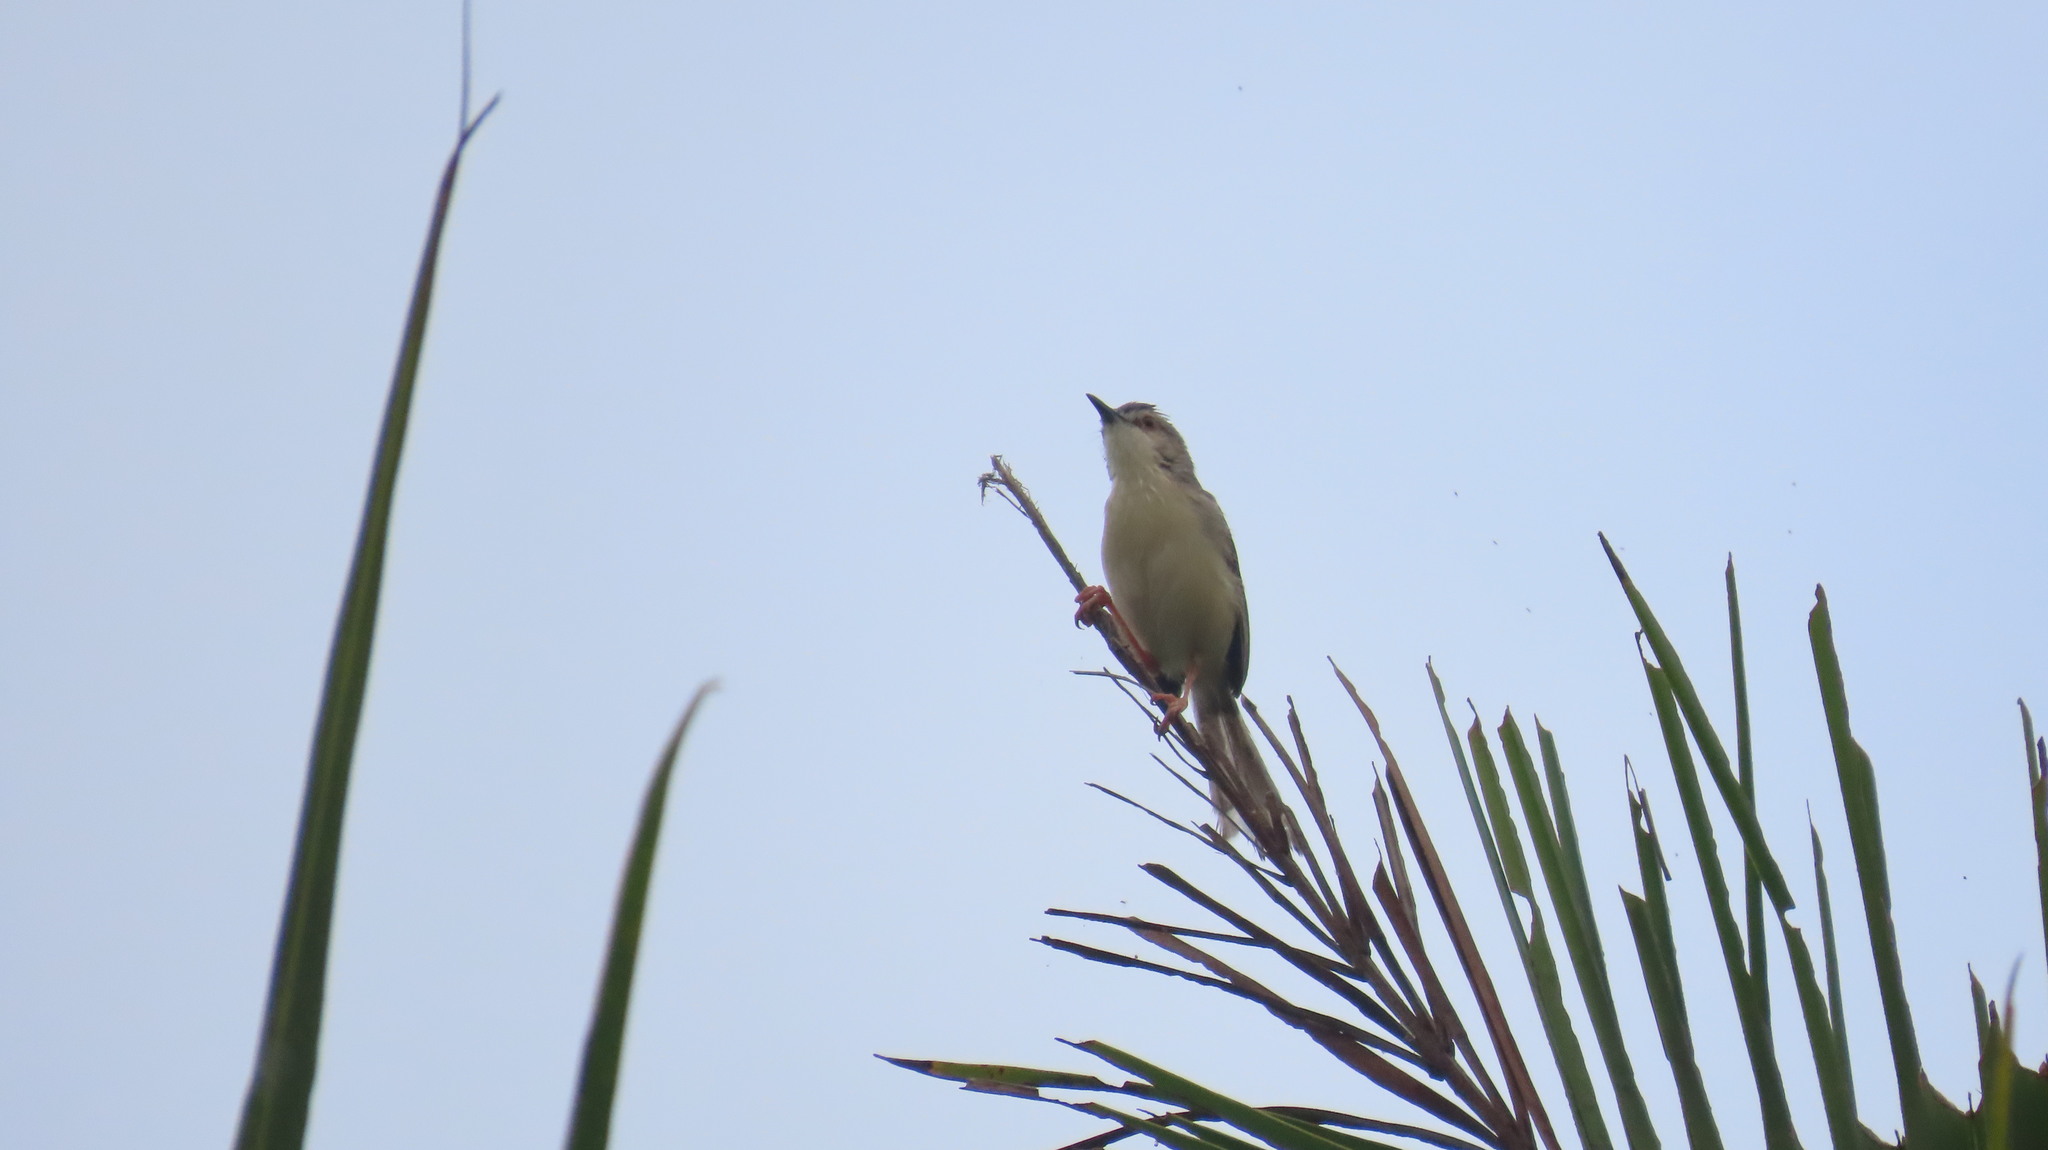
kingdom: Animalia
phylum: Chordata
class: Aves
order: Passeriformes
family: Cisticolidae
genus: Prinia
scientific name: Prinia inornata
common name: Plain prinia
